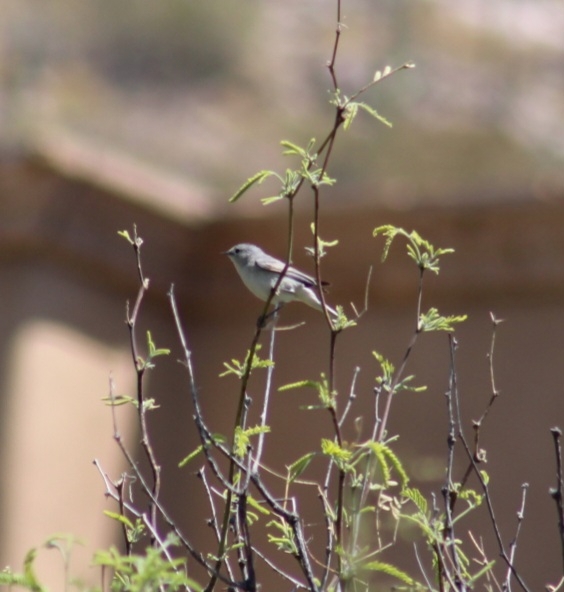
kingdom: Animalia
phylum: Chordata
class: Aves
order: Passeriformes
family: Parulidae
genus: Leiothlypis
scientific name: Leiothlypis luciae
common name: Lucy's warbler
